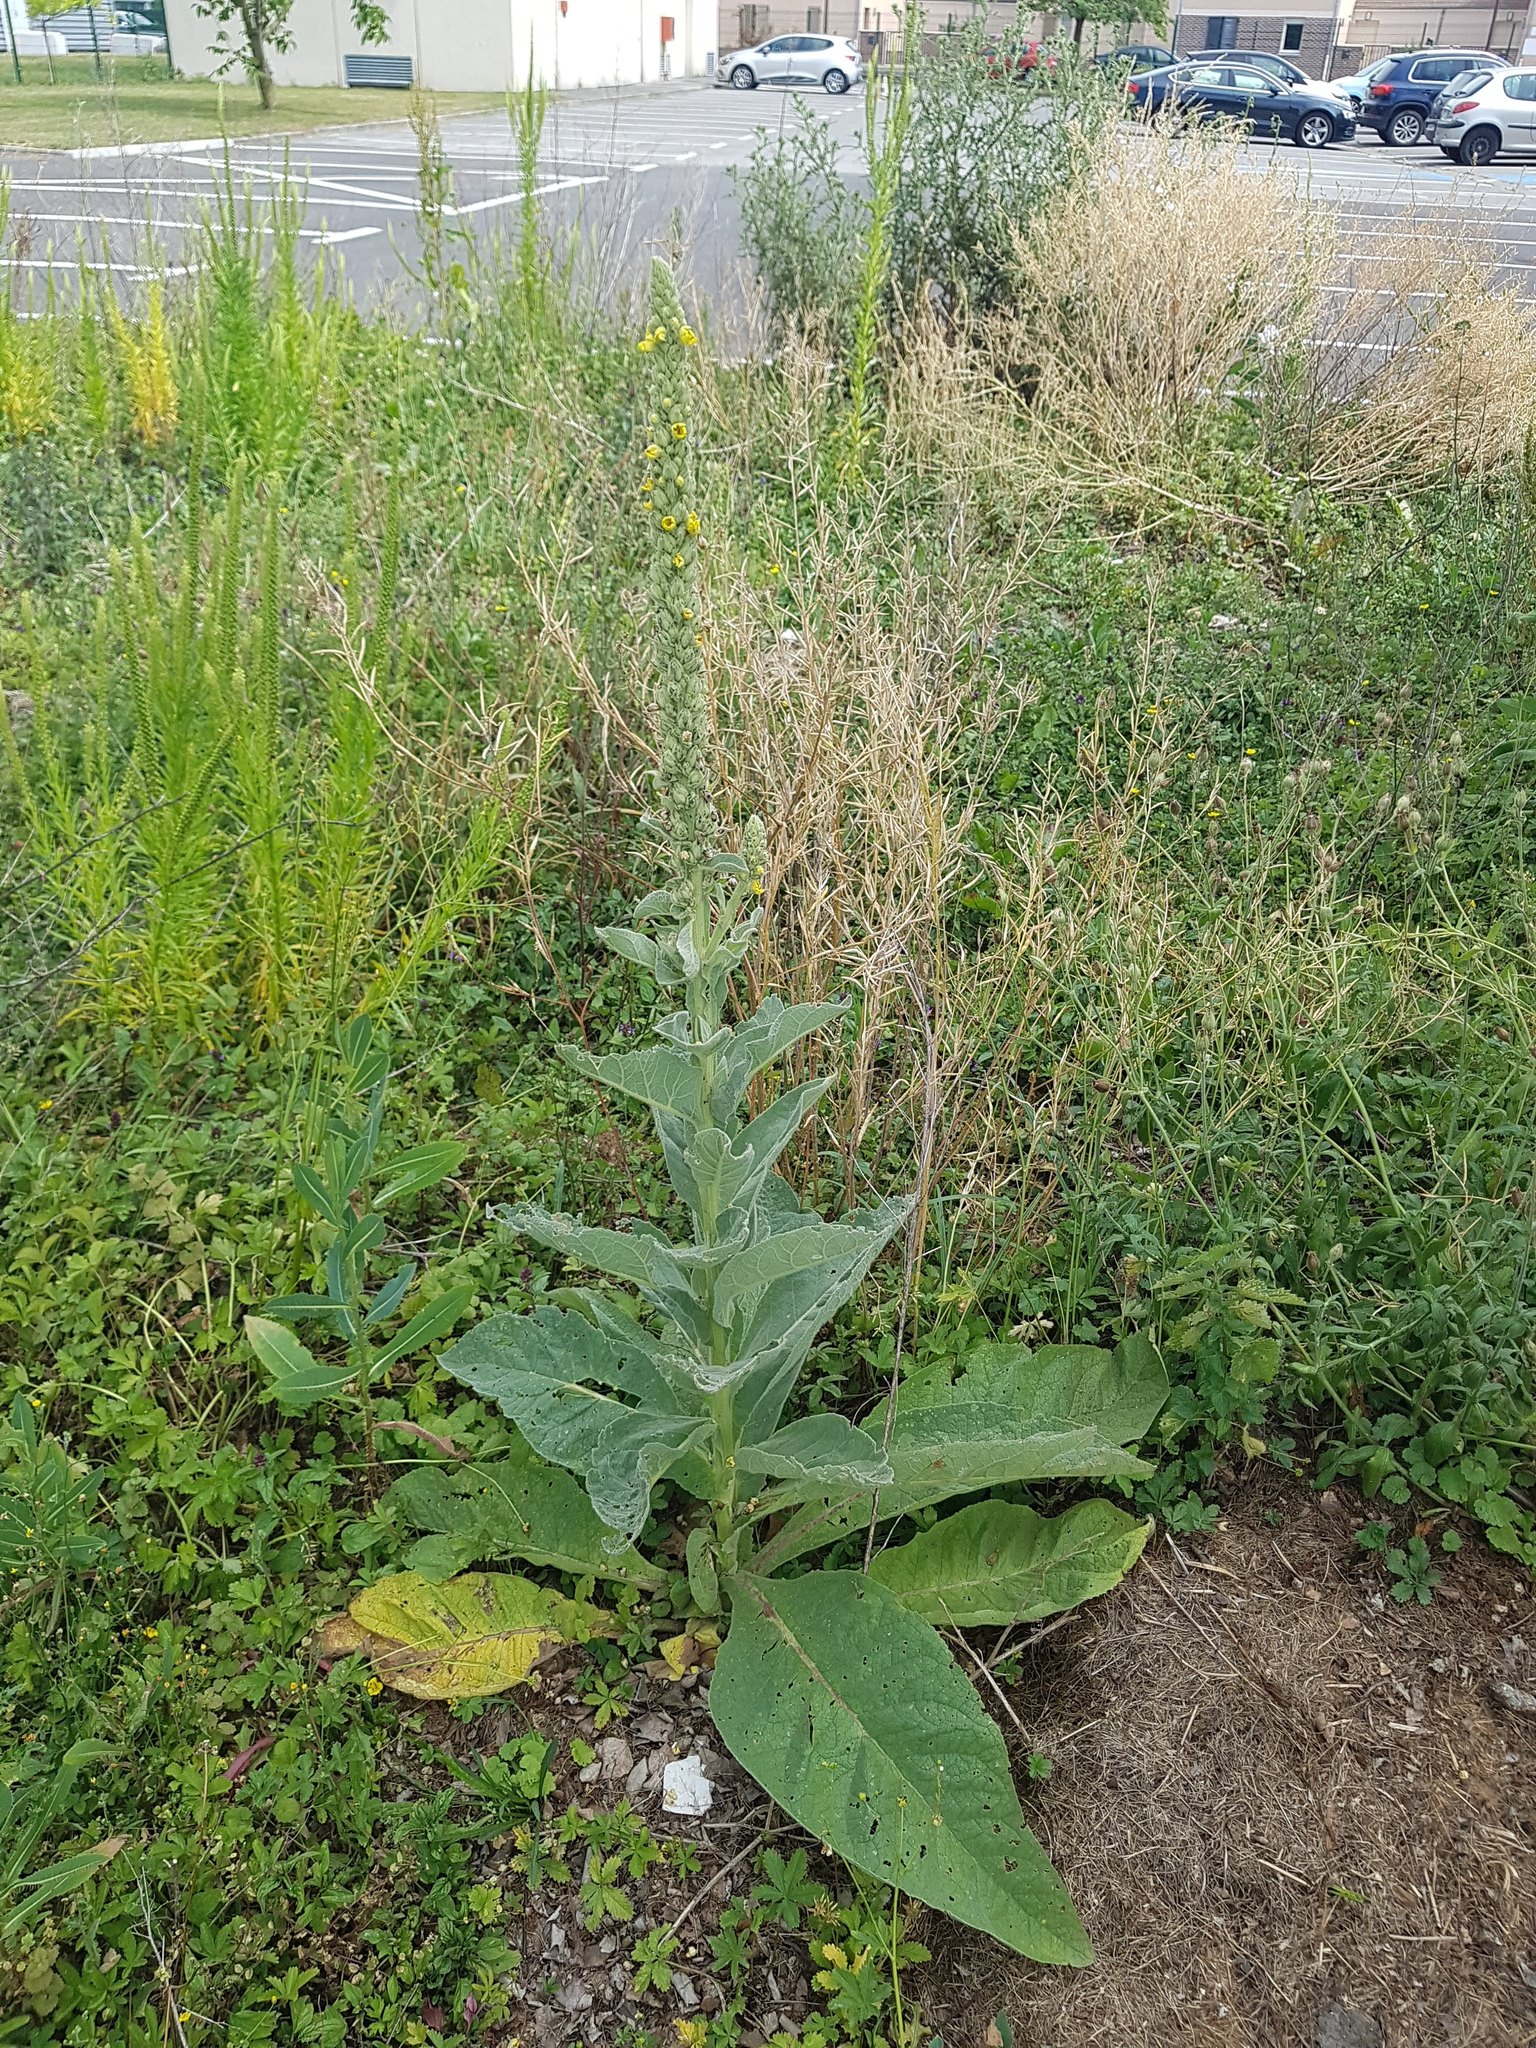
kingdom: Plantae
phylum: Tracheophyta
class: Magnoliopsida
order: Lamiales
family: Scrophulariaceae
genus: Verbascum
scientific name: Verbascum thapsus
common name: Common mullein
